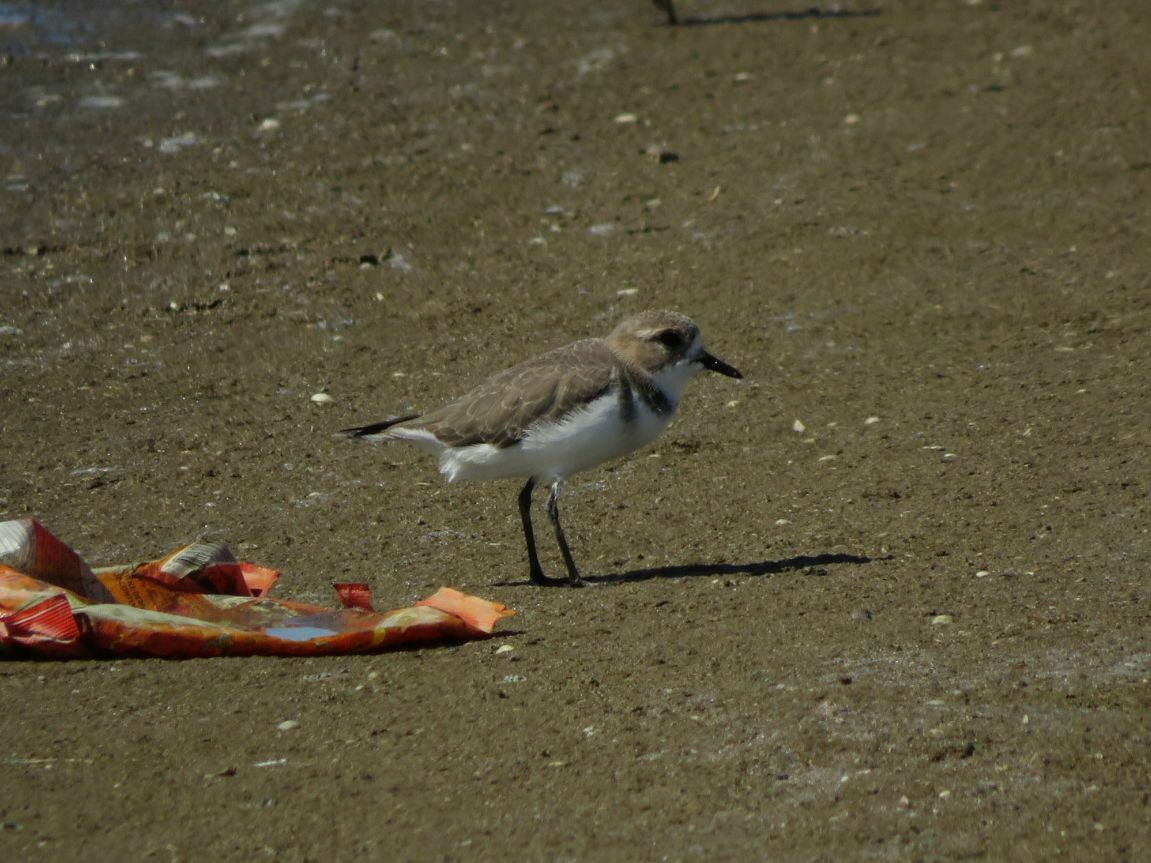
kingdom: Animalia
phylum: Chordata
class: Aves
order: Charadriiformes
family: Charadriidae
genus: Anarhynchus
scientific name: Anarhynchus
